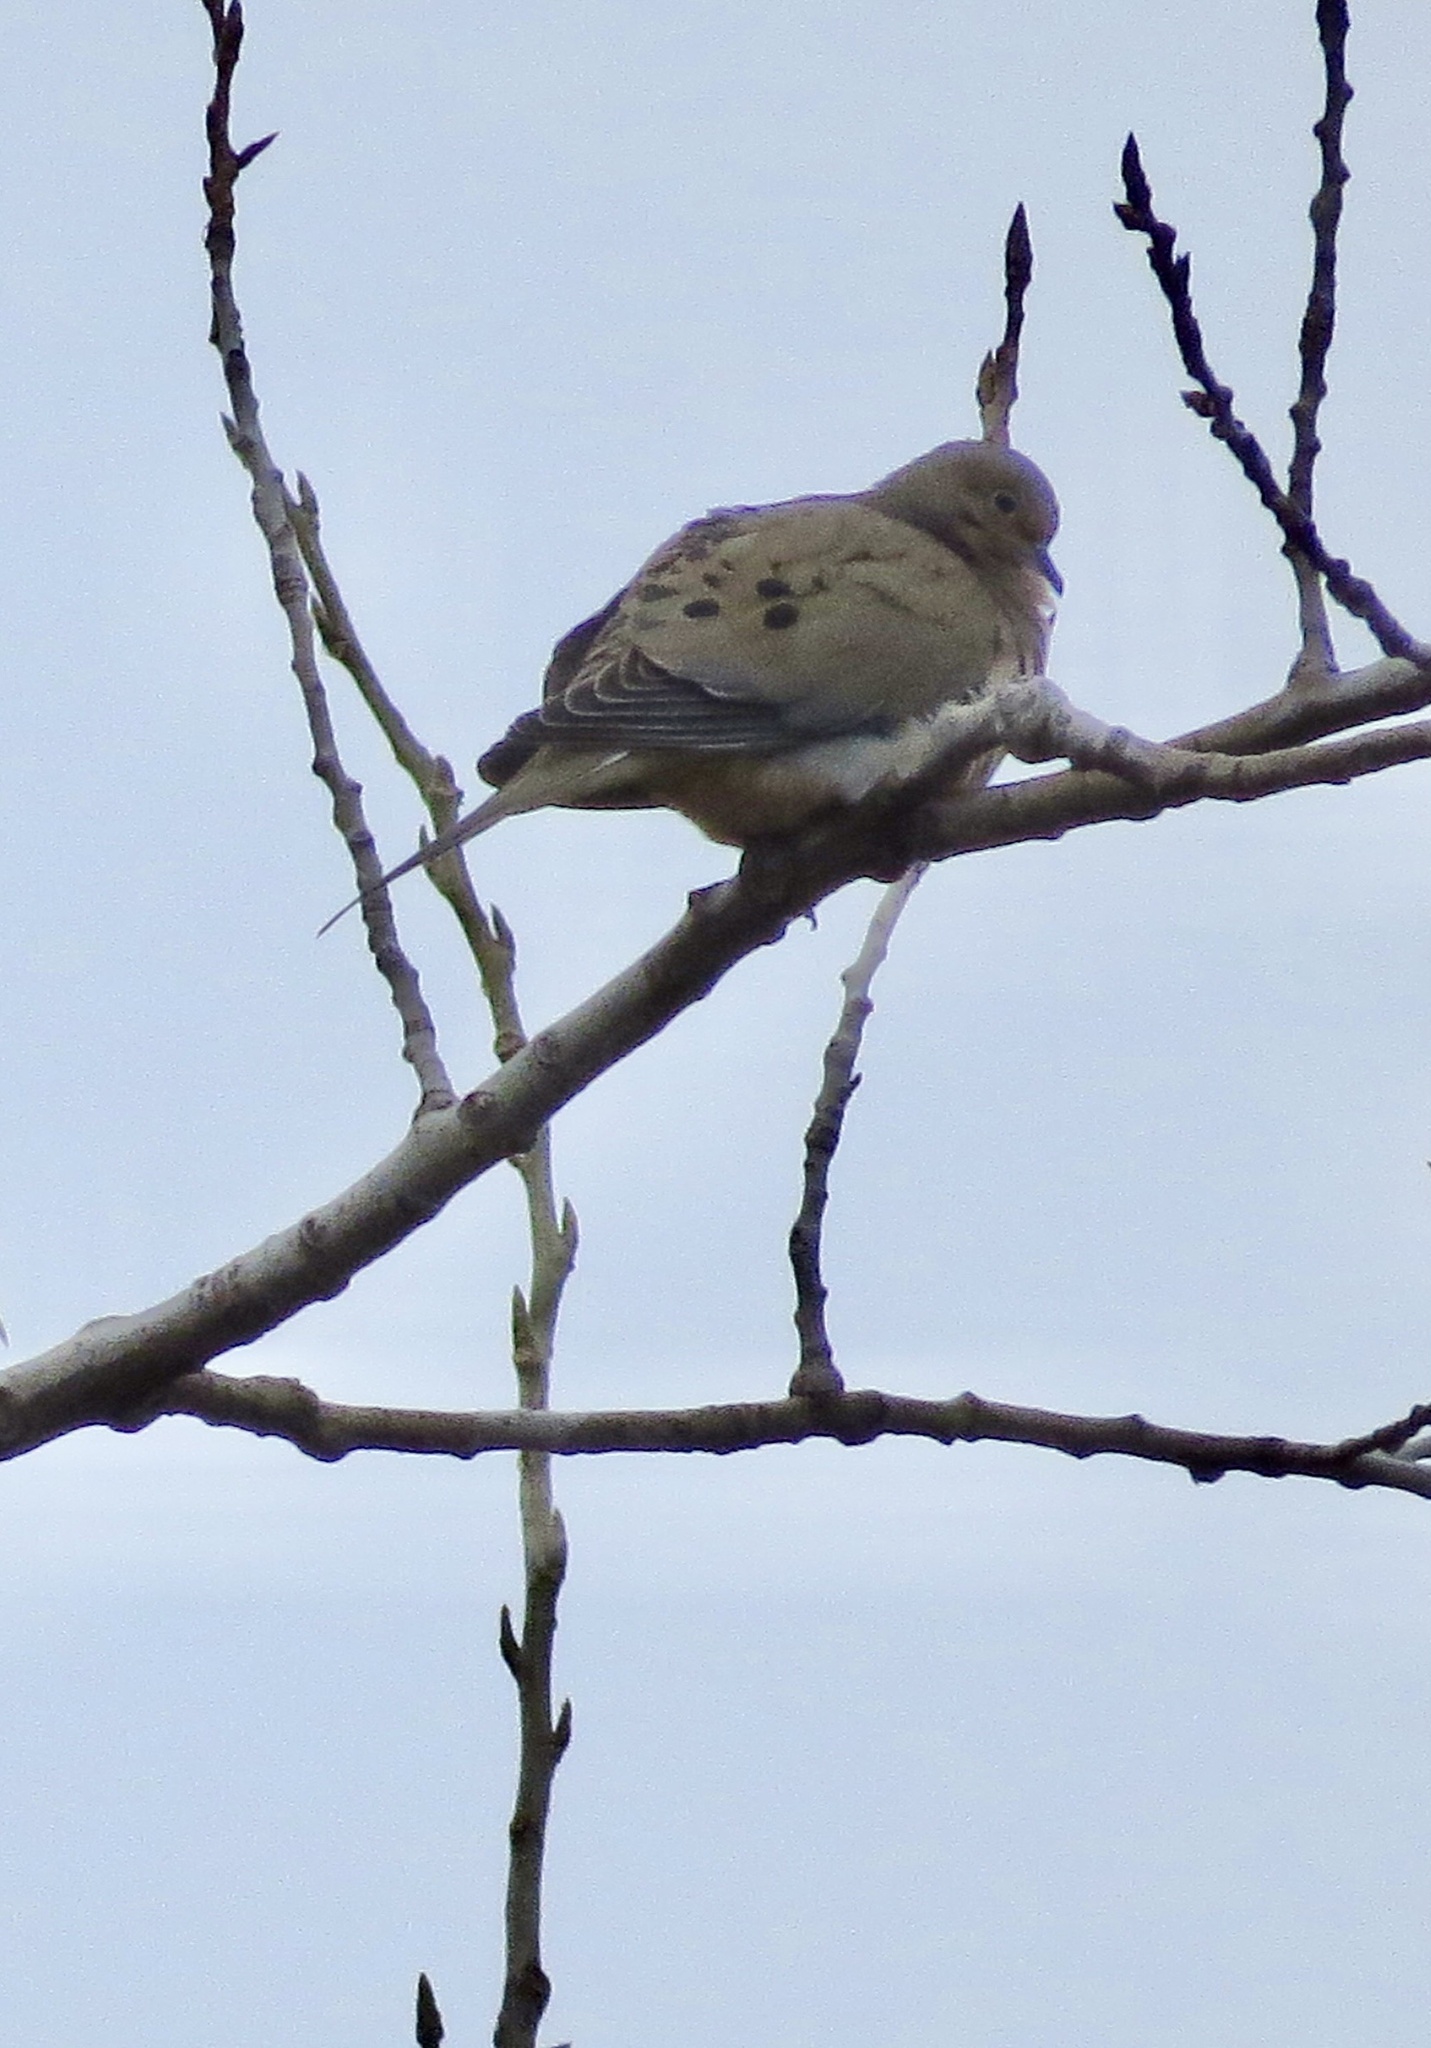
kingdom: Animalia
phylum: Chordata
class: Aves
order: Columbiformes
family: Columbidae
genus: Zenaida
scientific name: Zenaida macroura
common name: Mourning dove
